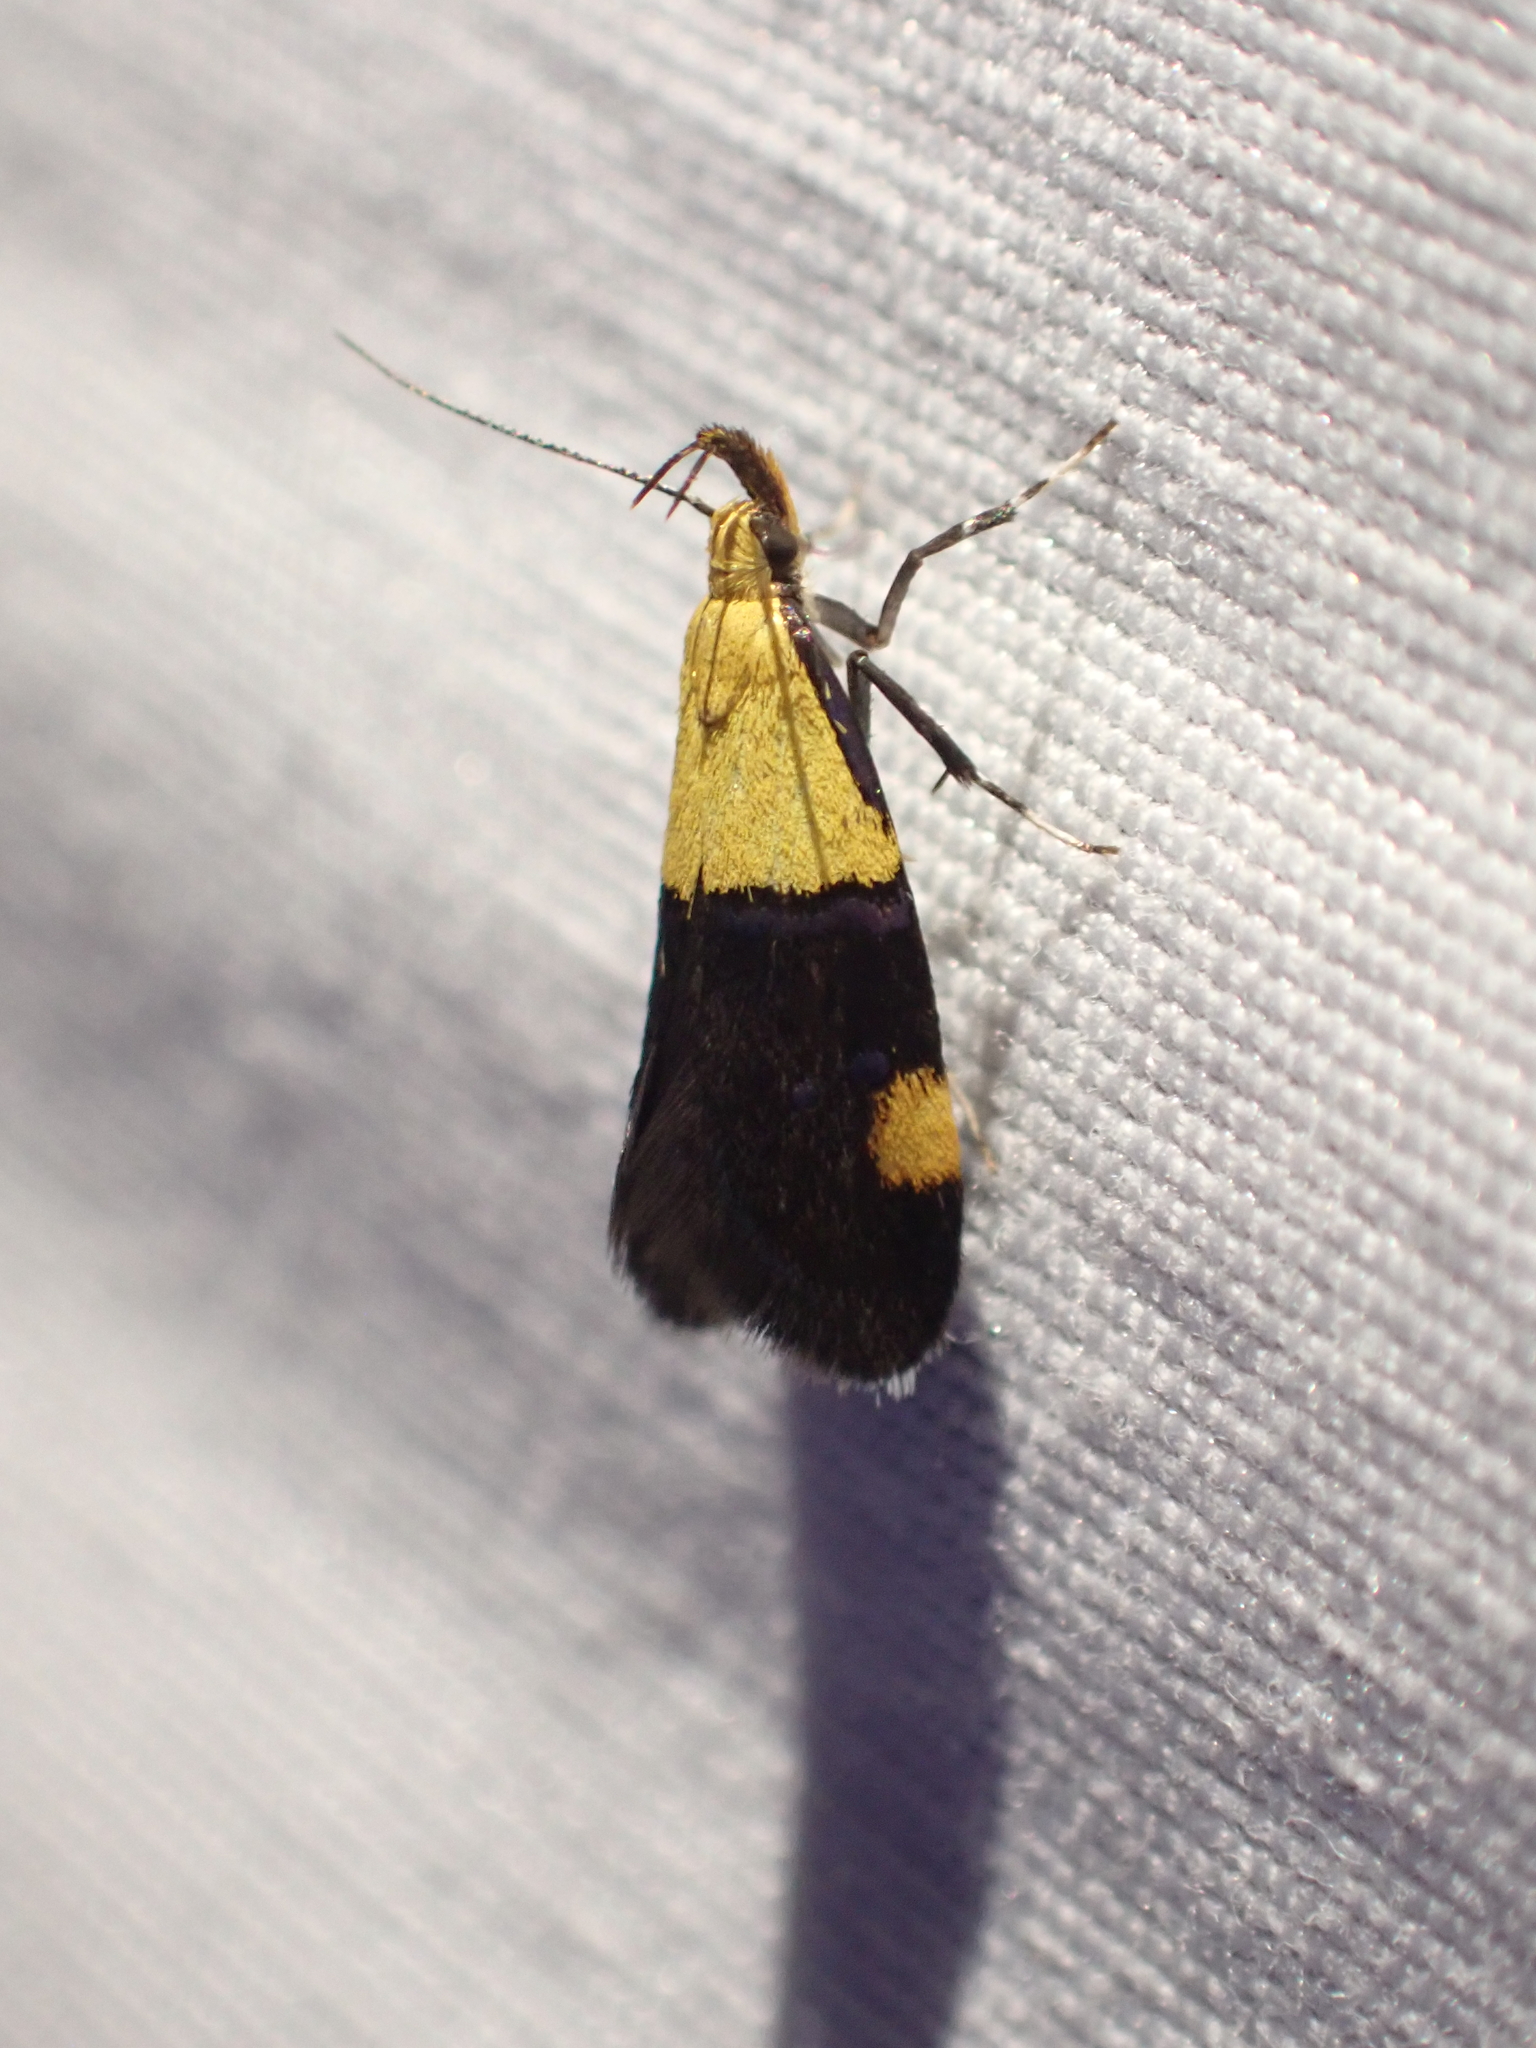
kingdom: Animalia
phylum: Arthropoda
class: Insecta
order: Lepidoptera
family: Oecophoridae
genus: Oecophora
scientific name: Oecophora bractella
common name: Gold-base tubic
